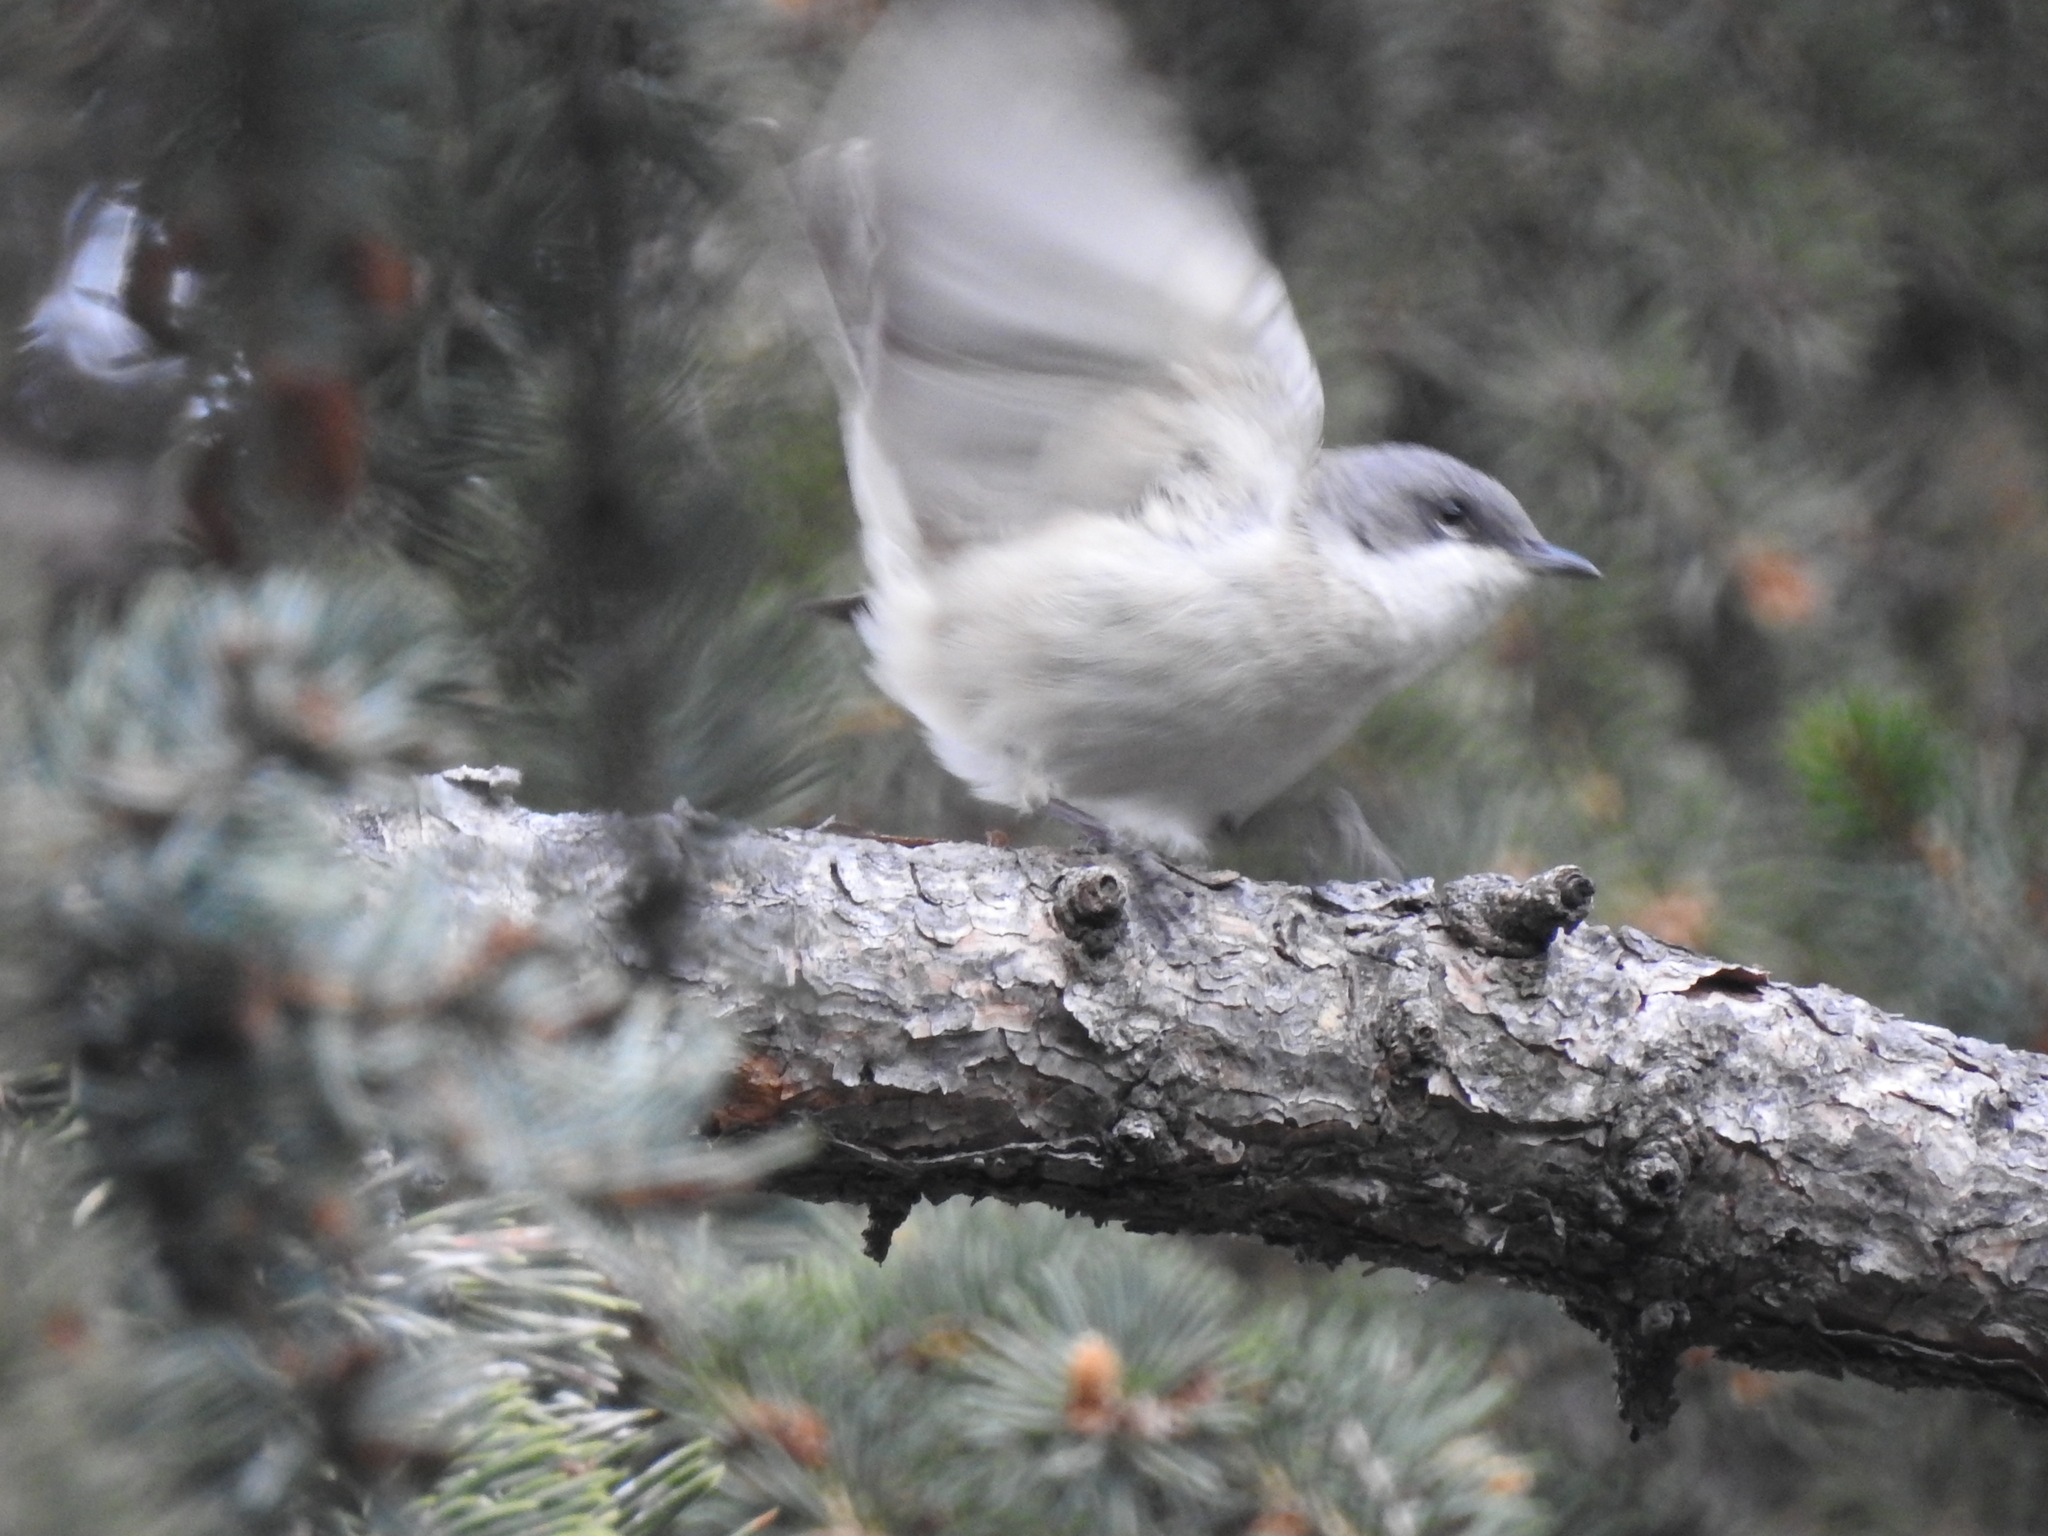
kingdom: Animalia
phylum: Chordata
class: Aves
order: Passeriformes
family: Sylviidae
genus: Sylvia
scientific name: Sylvia curruca
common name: Lesser whitethroat
